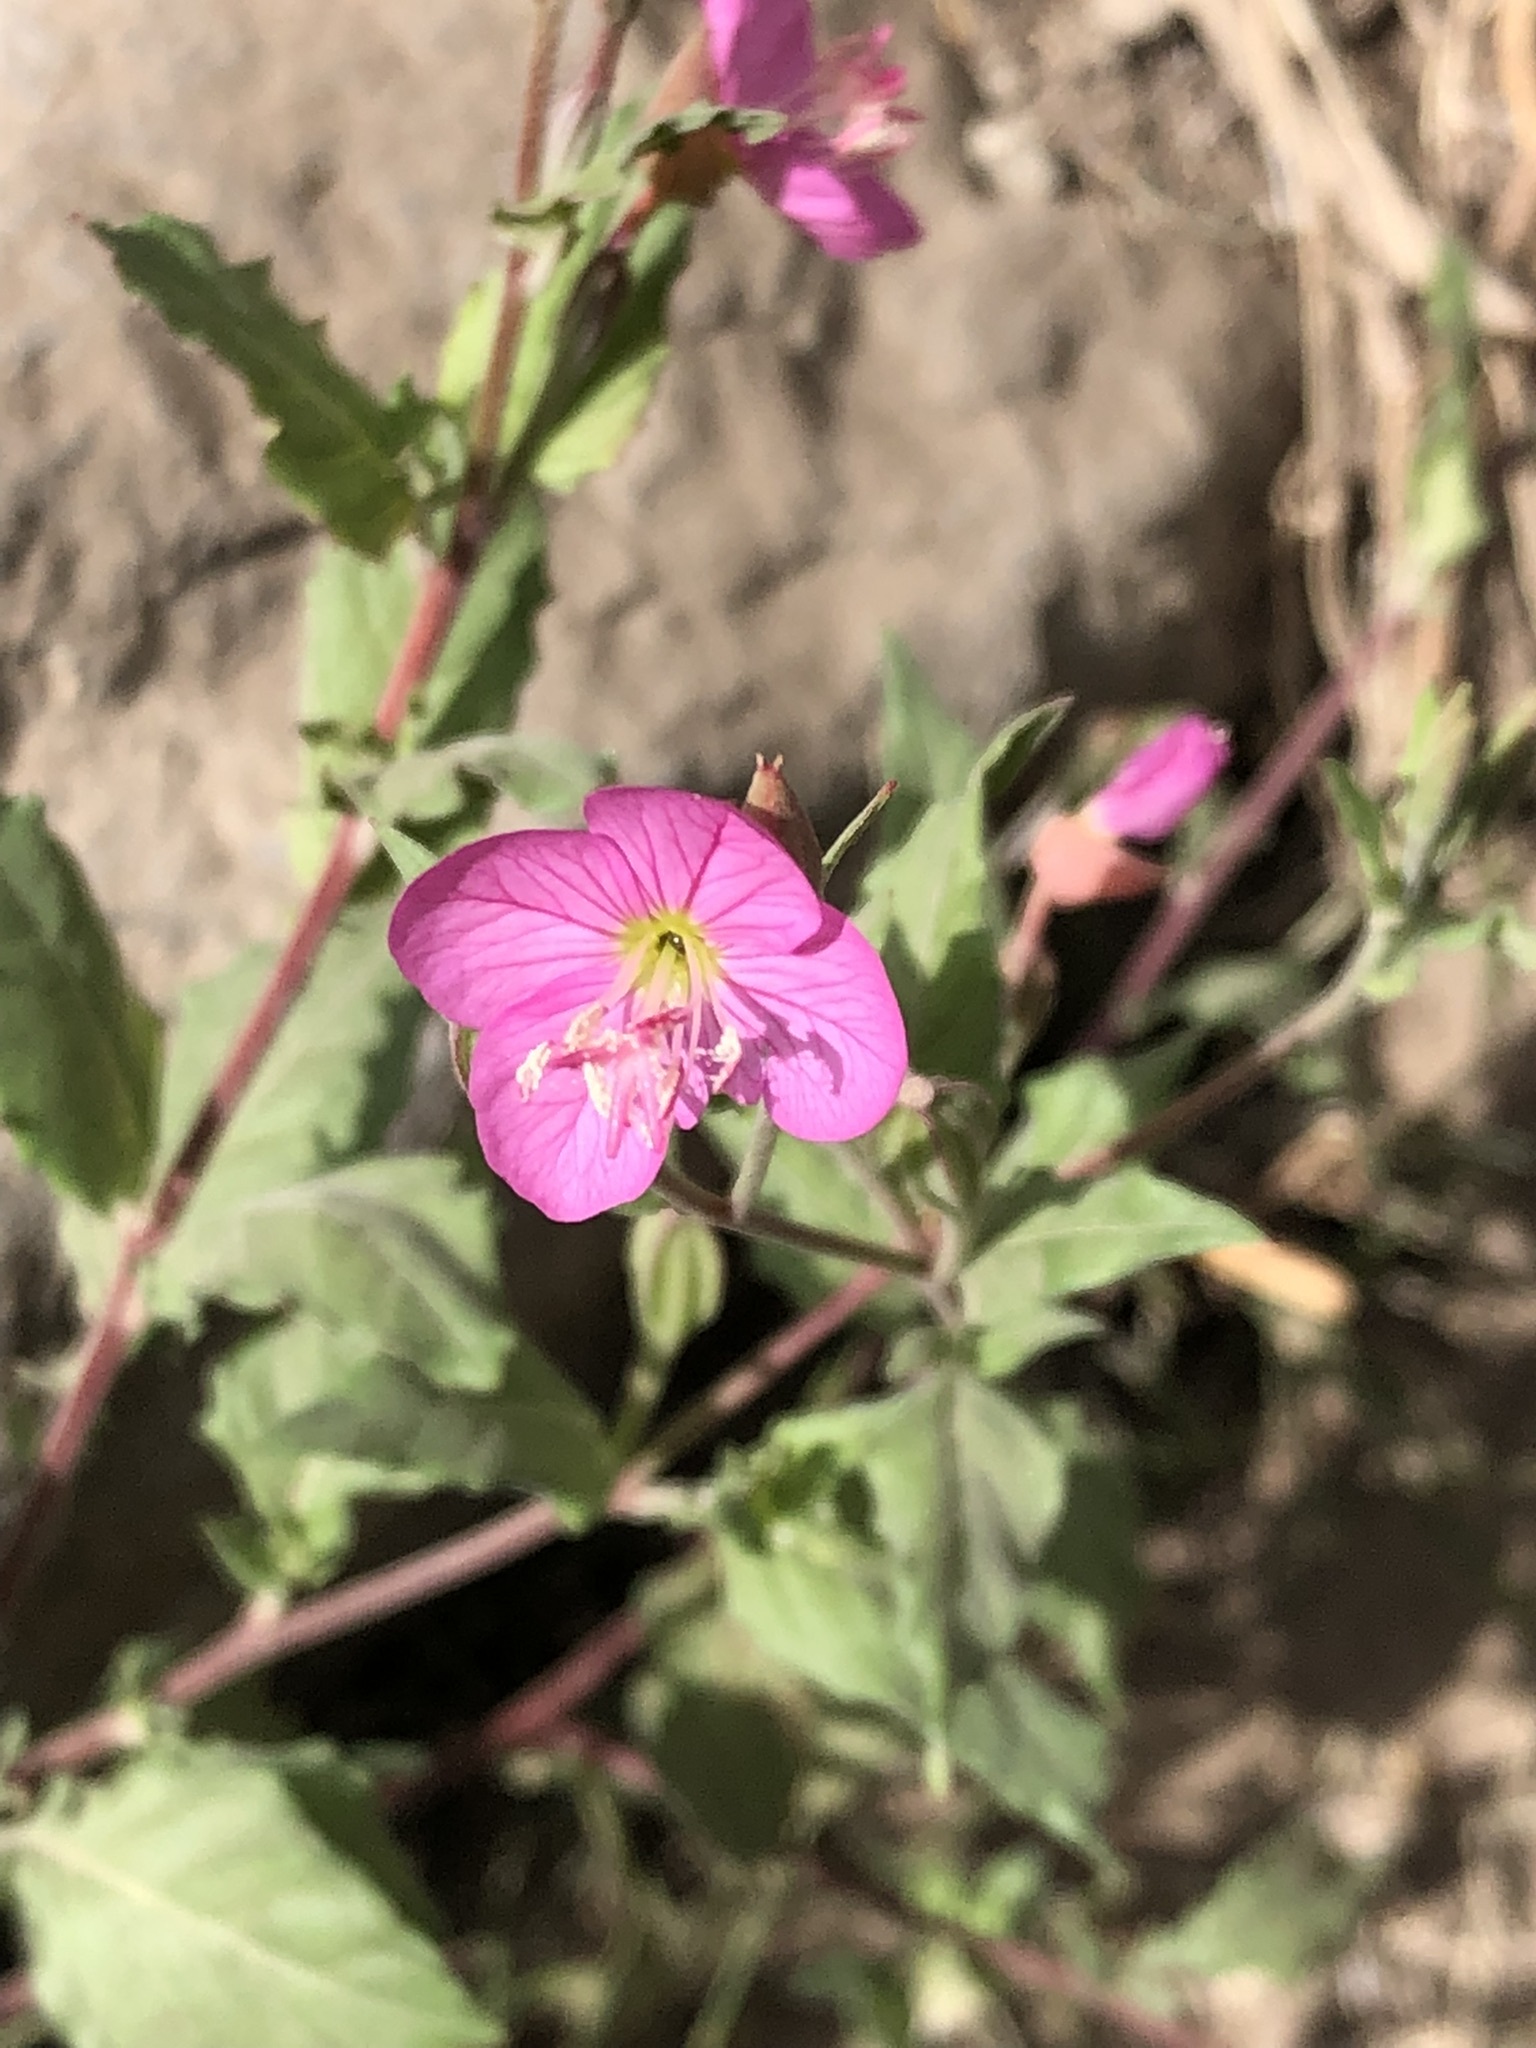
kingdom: Plantae
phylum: Tracheophyta
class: Magnoliopsida
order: Myrtales
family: Onagraceae
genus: Oenothera
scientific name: Oenothera rosea
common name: Rosy evening-primrose
